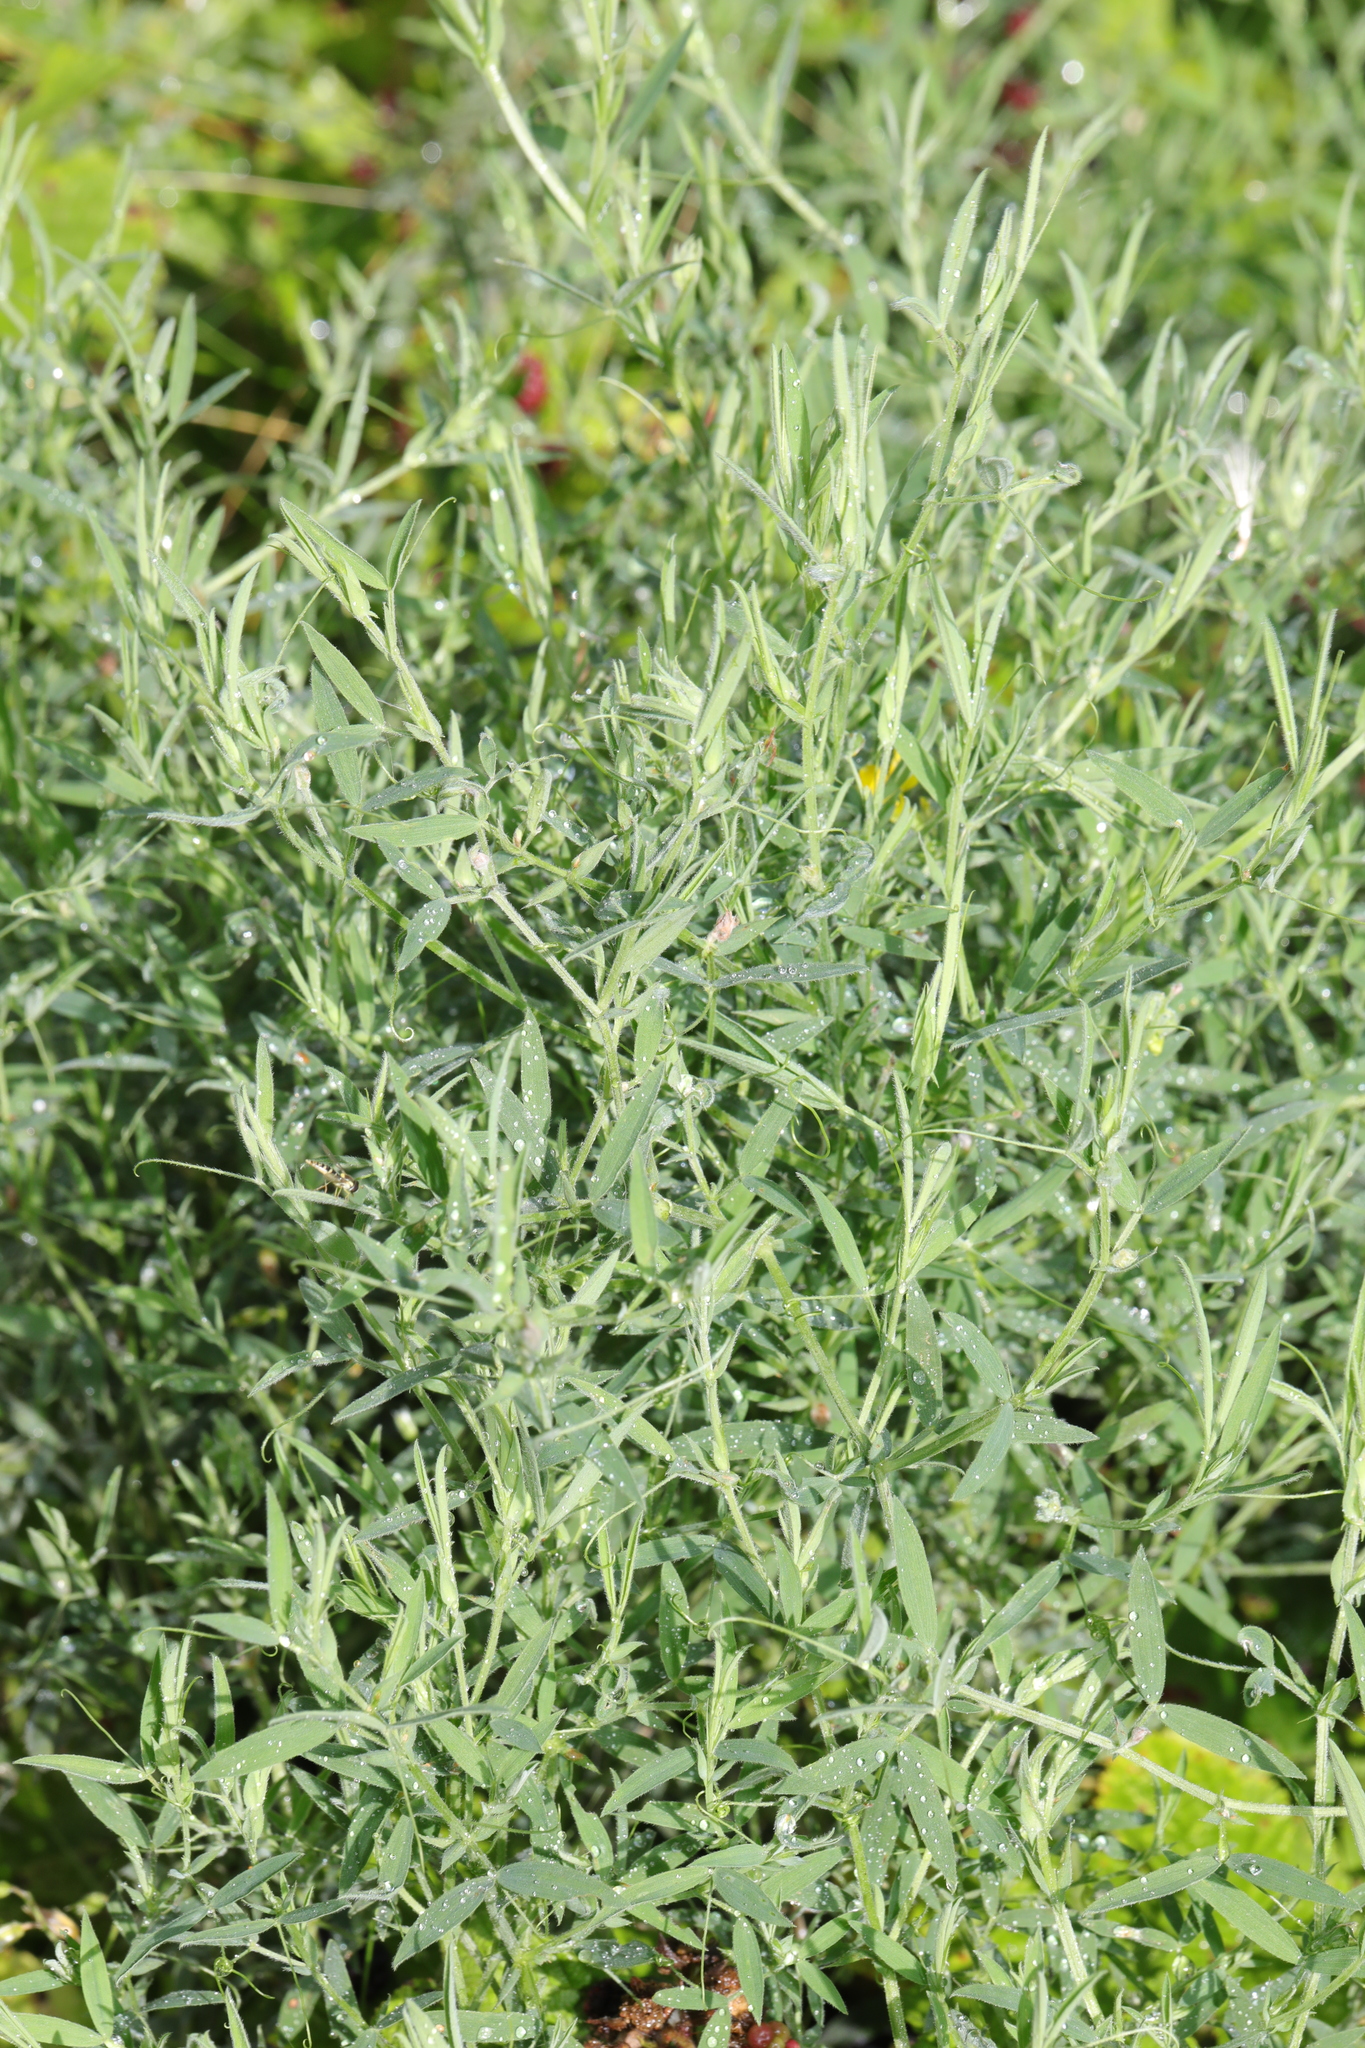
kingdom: Plantae
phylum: Tracheophyta
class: Magnoliopsida
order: Fabales
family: Fabaceae
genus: Lathyrus
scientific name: Lathyrus pratensis
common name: Meadow vetchling
